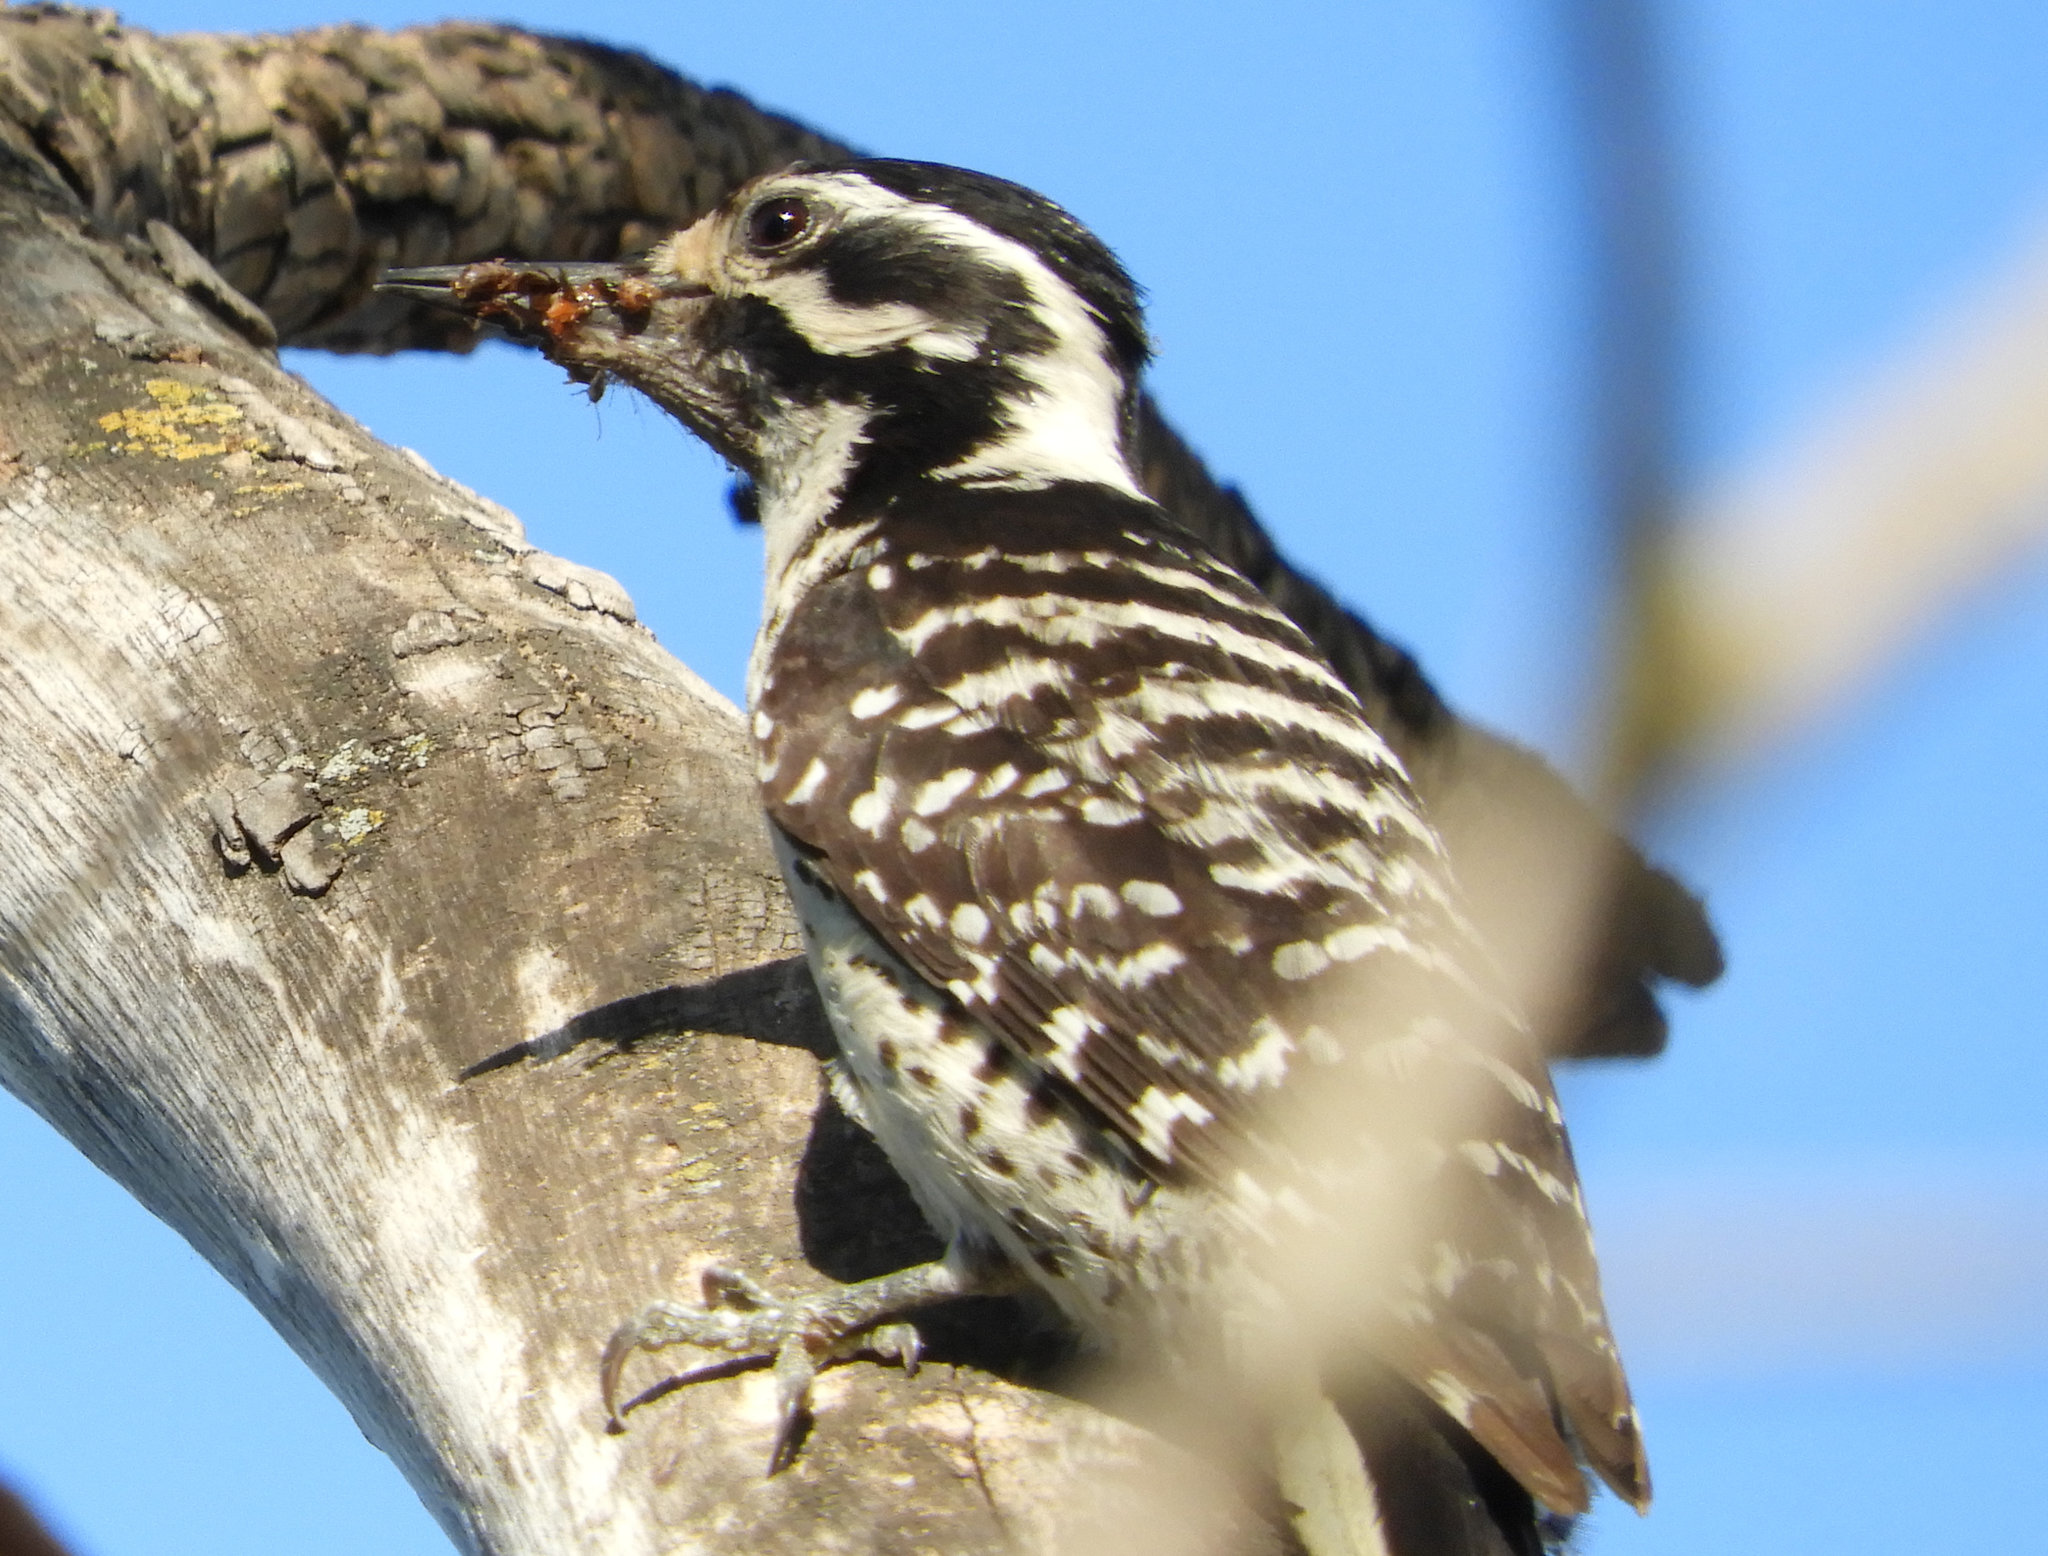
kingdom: Animalia
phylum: Chordata
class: Aves
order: Piciformes
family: Picidae
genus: Dryobates
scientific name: Dryobates nuttallii
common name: Nuttall's woodpecker
